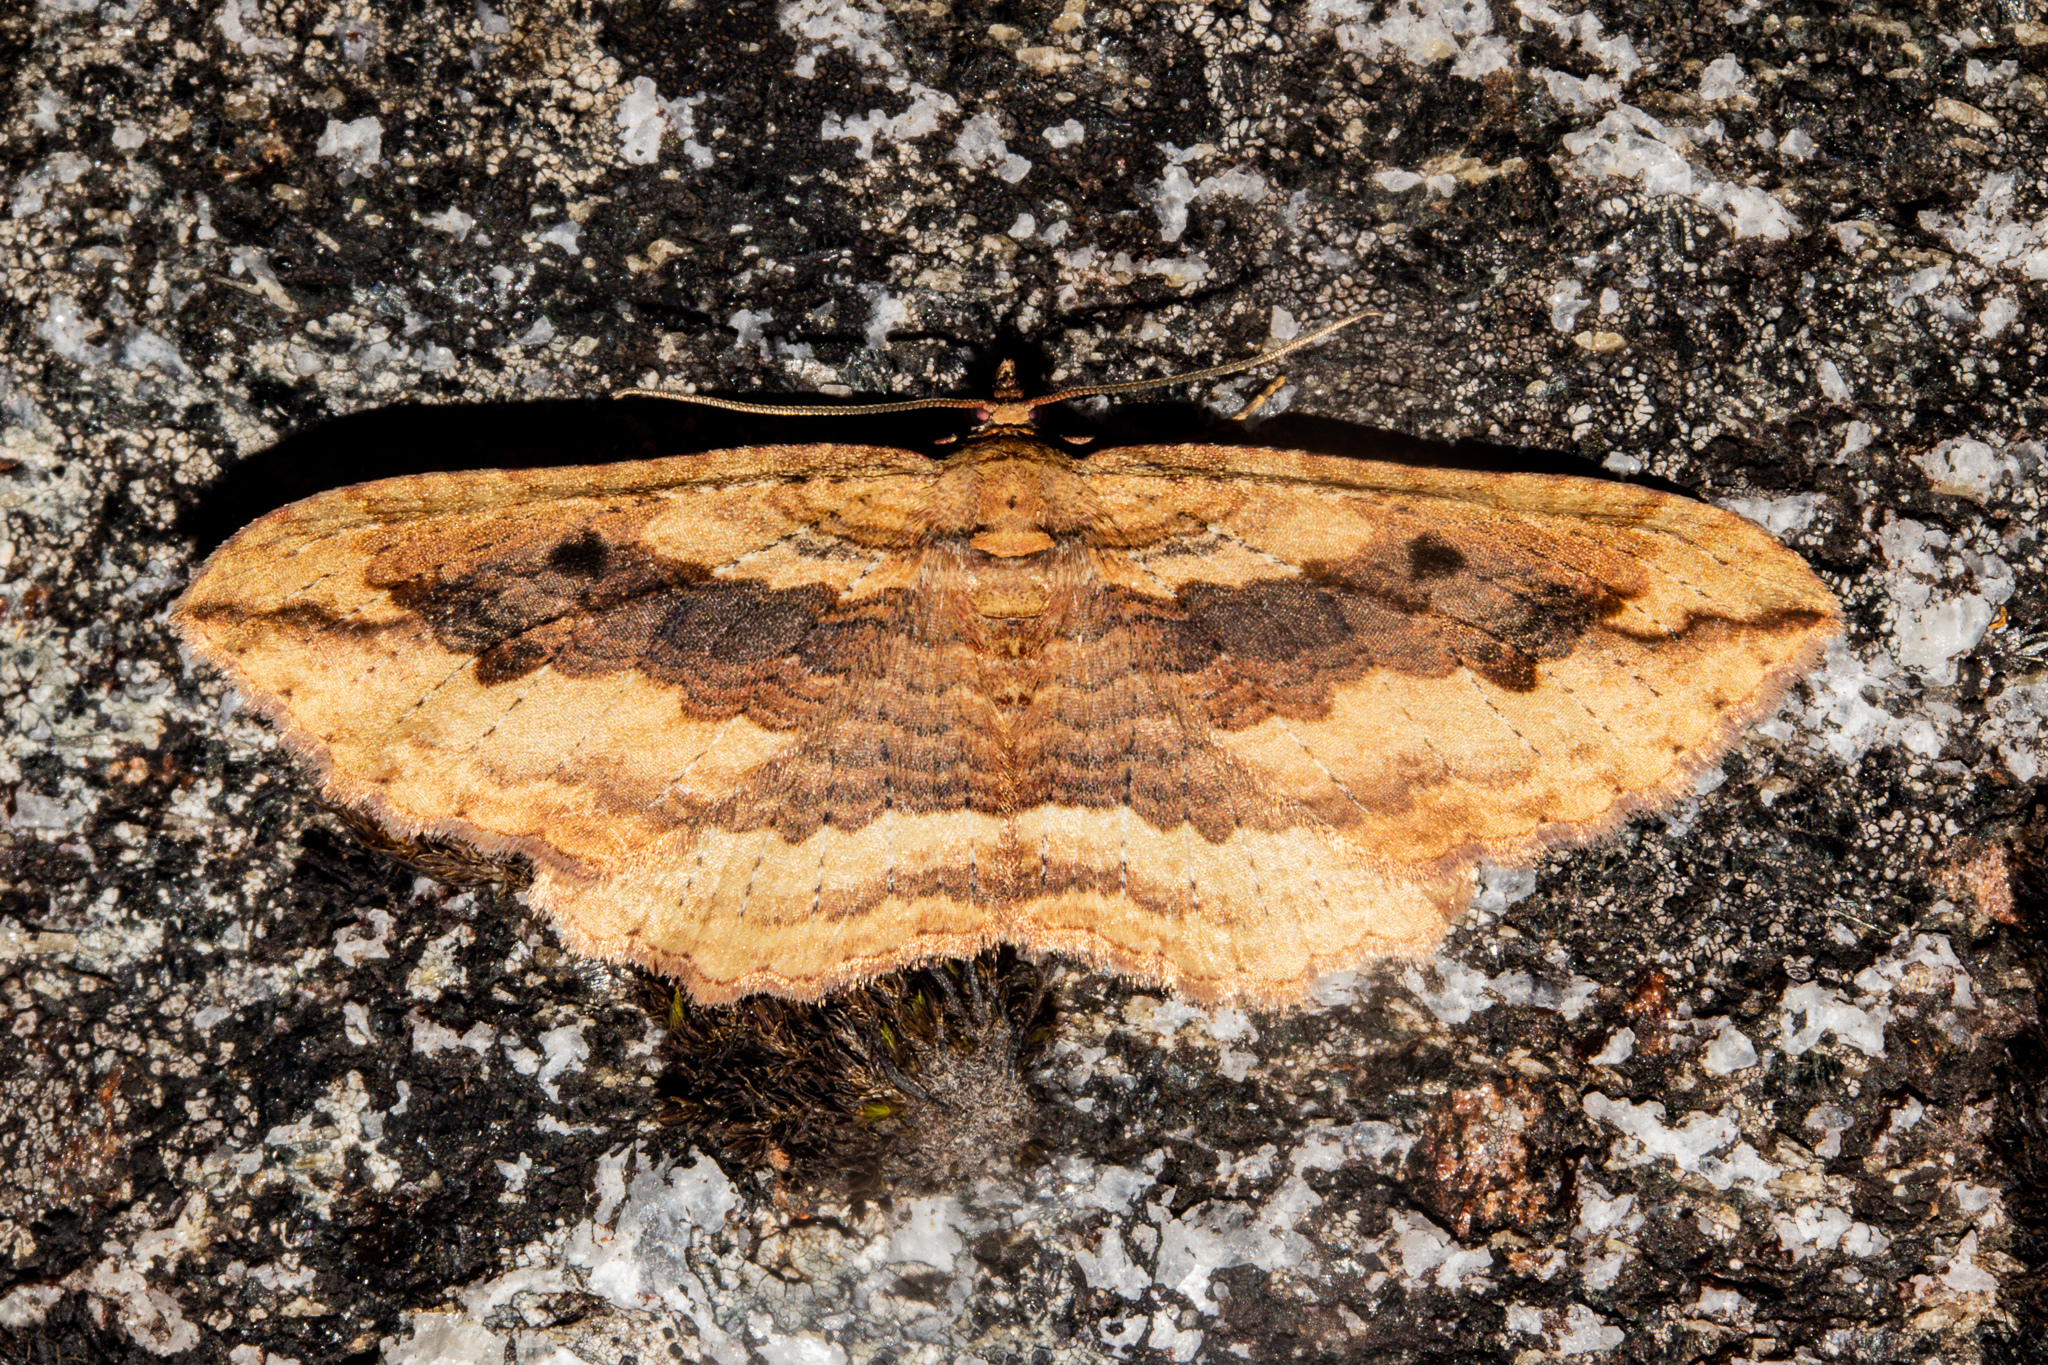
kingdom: Animalia
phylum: Arthropoda
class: Insecta
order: Lepidoptera
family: Geometridae
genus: Austrocidaria
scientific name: Austrocidaria anguligera
